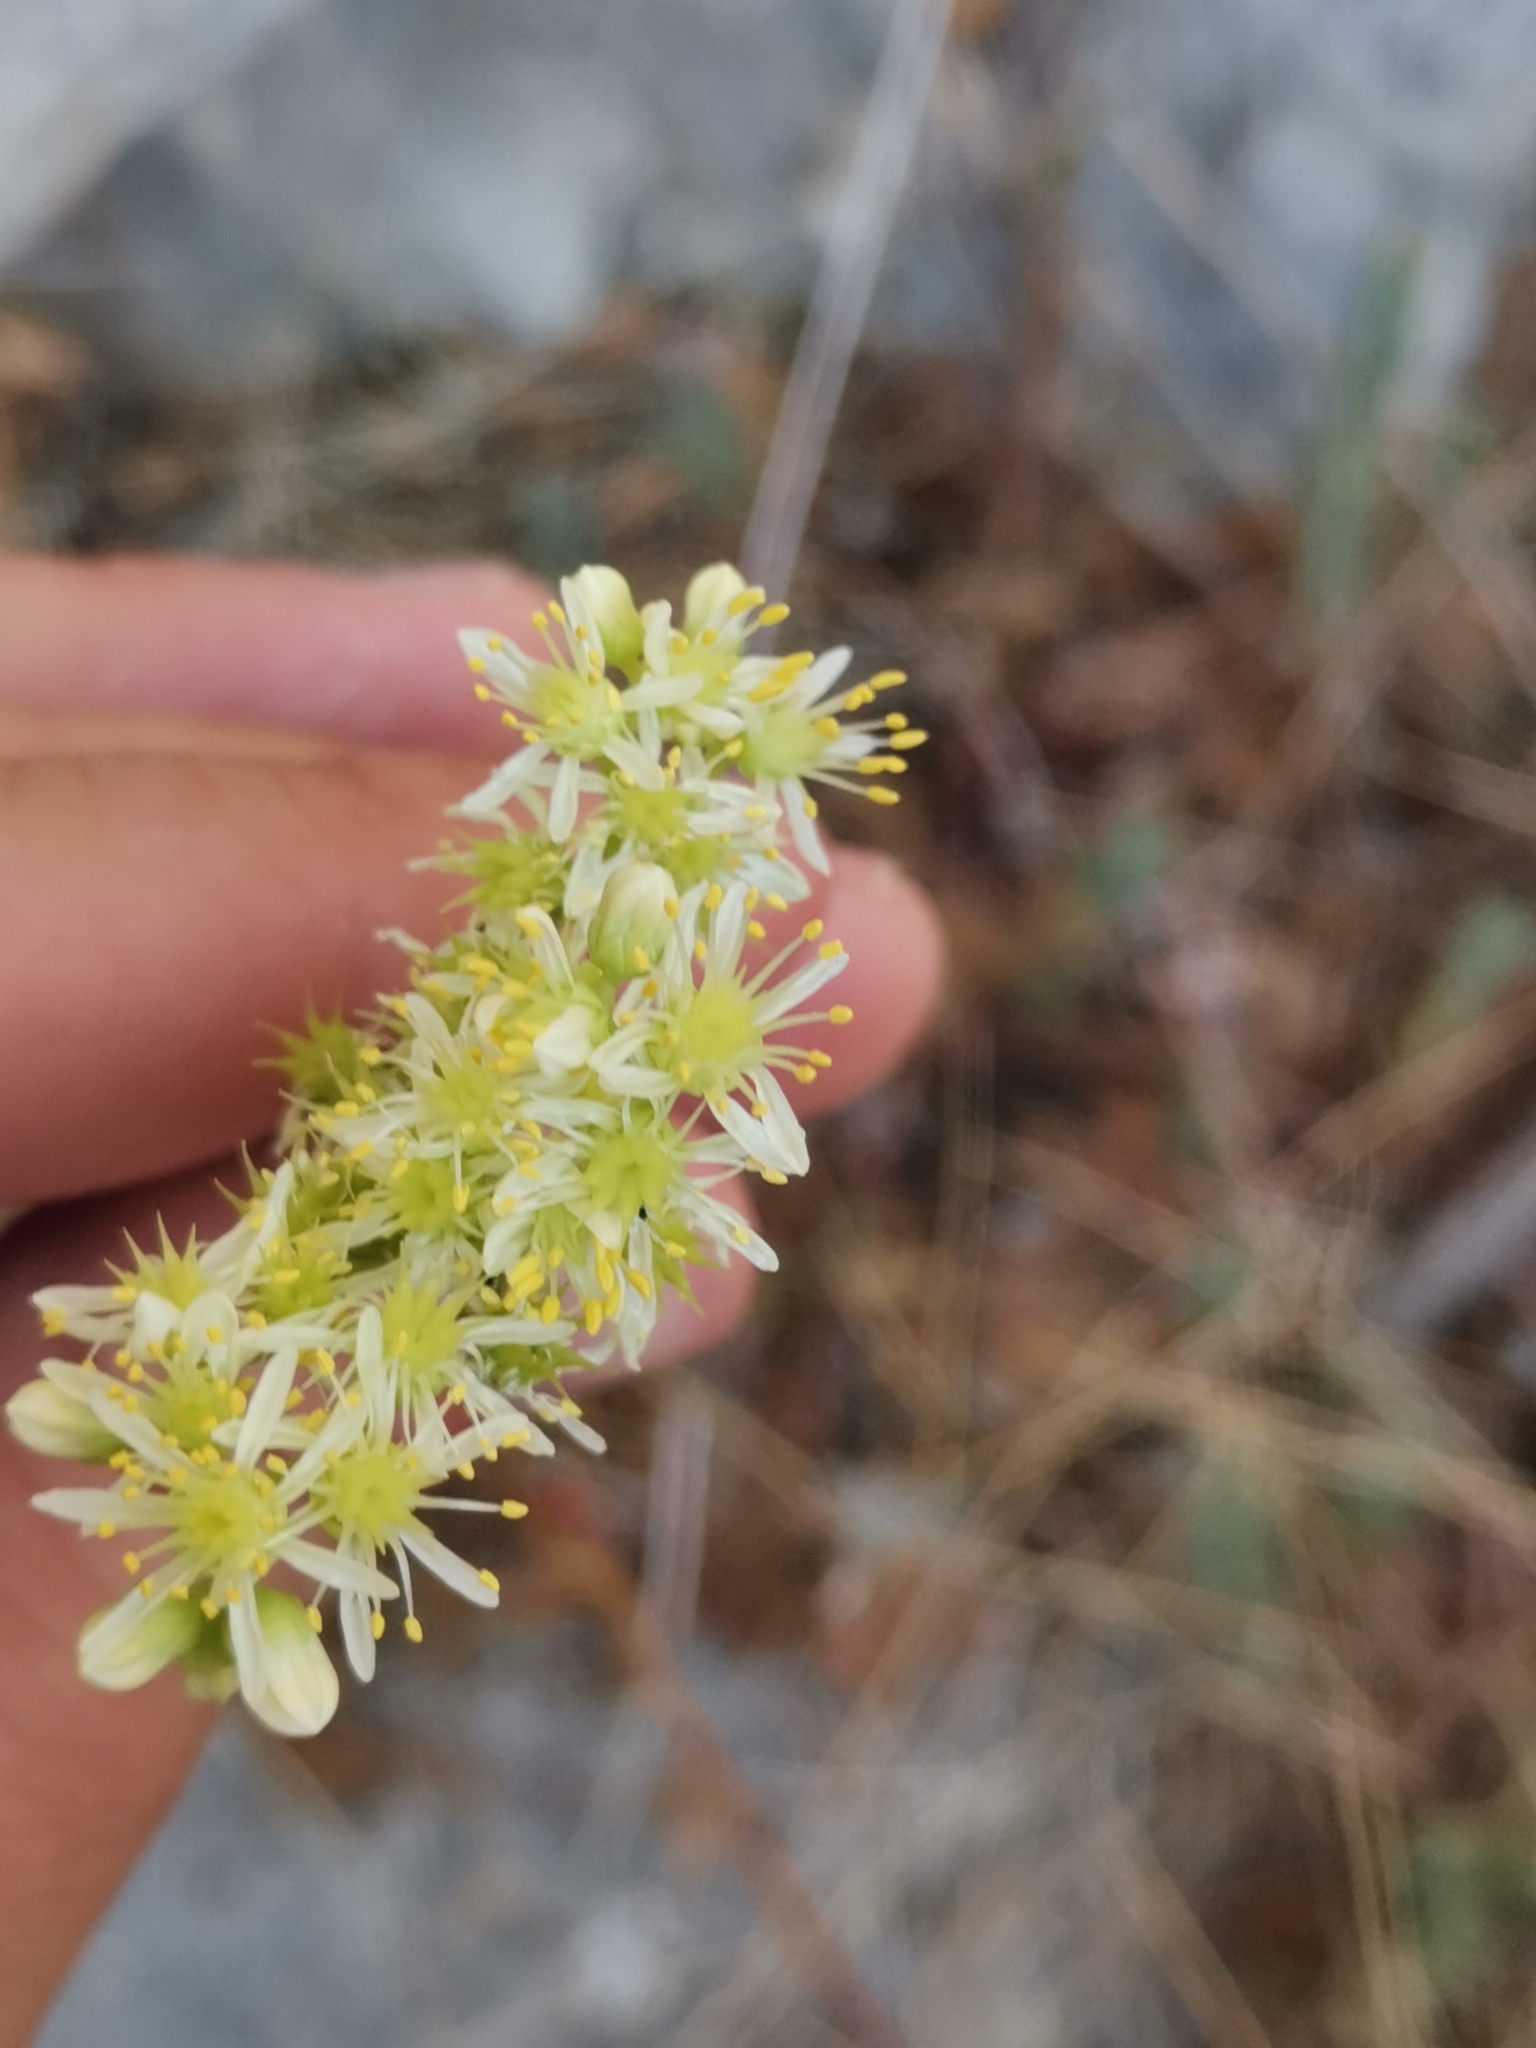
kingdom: Plantae
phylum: Tracheophyta
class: Magnoliopsida
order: Saxifragales
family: Crassulaceae
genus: Petrosedum
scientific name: Petrosedum sediforme
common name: Pale stonecrop
